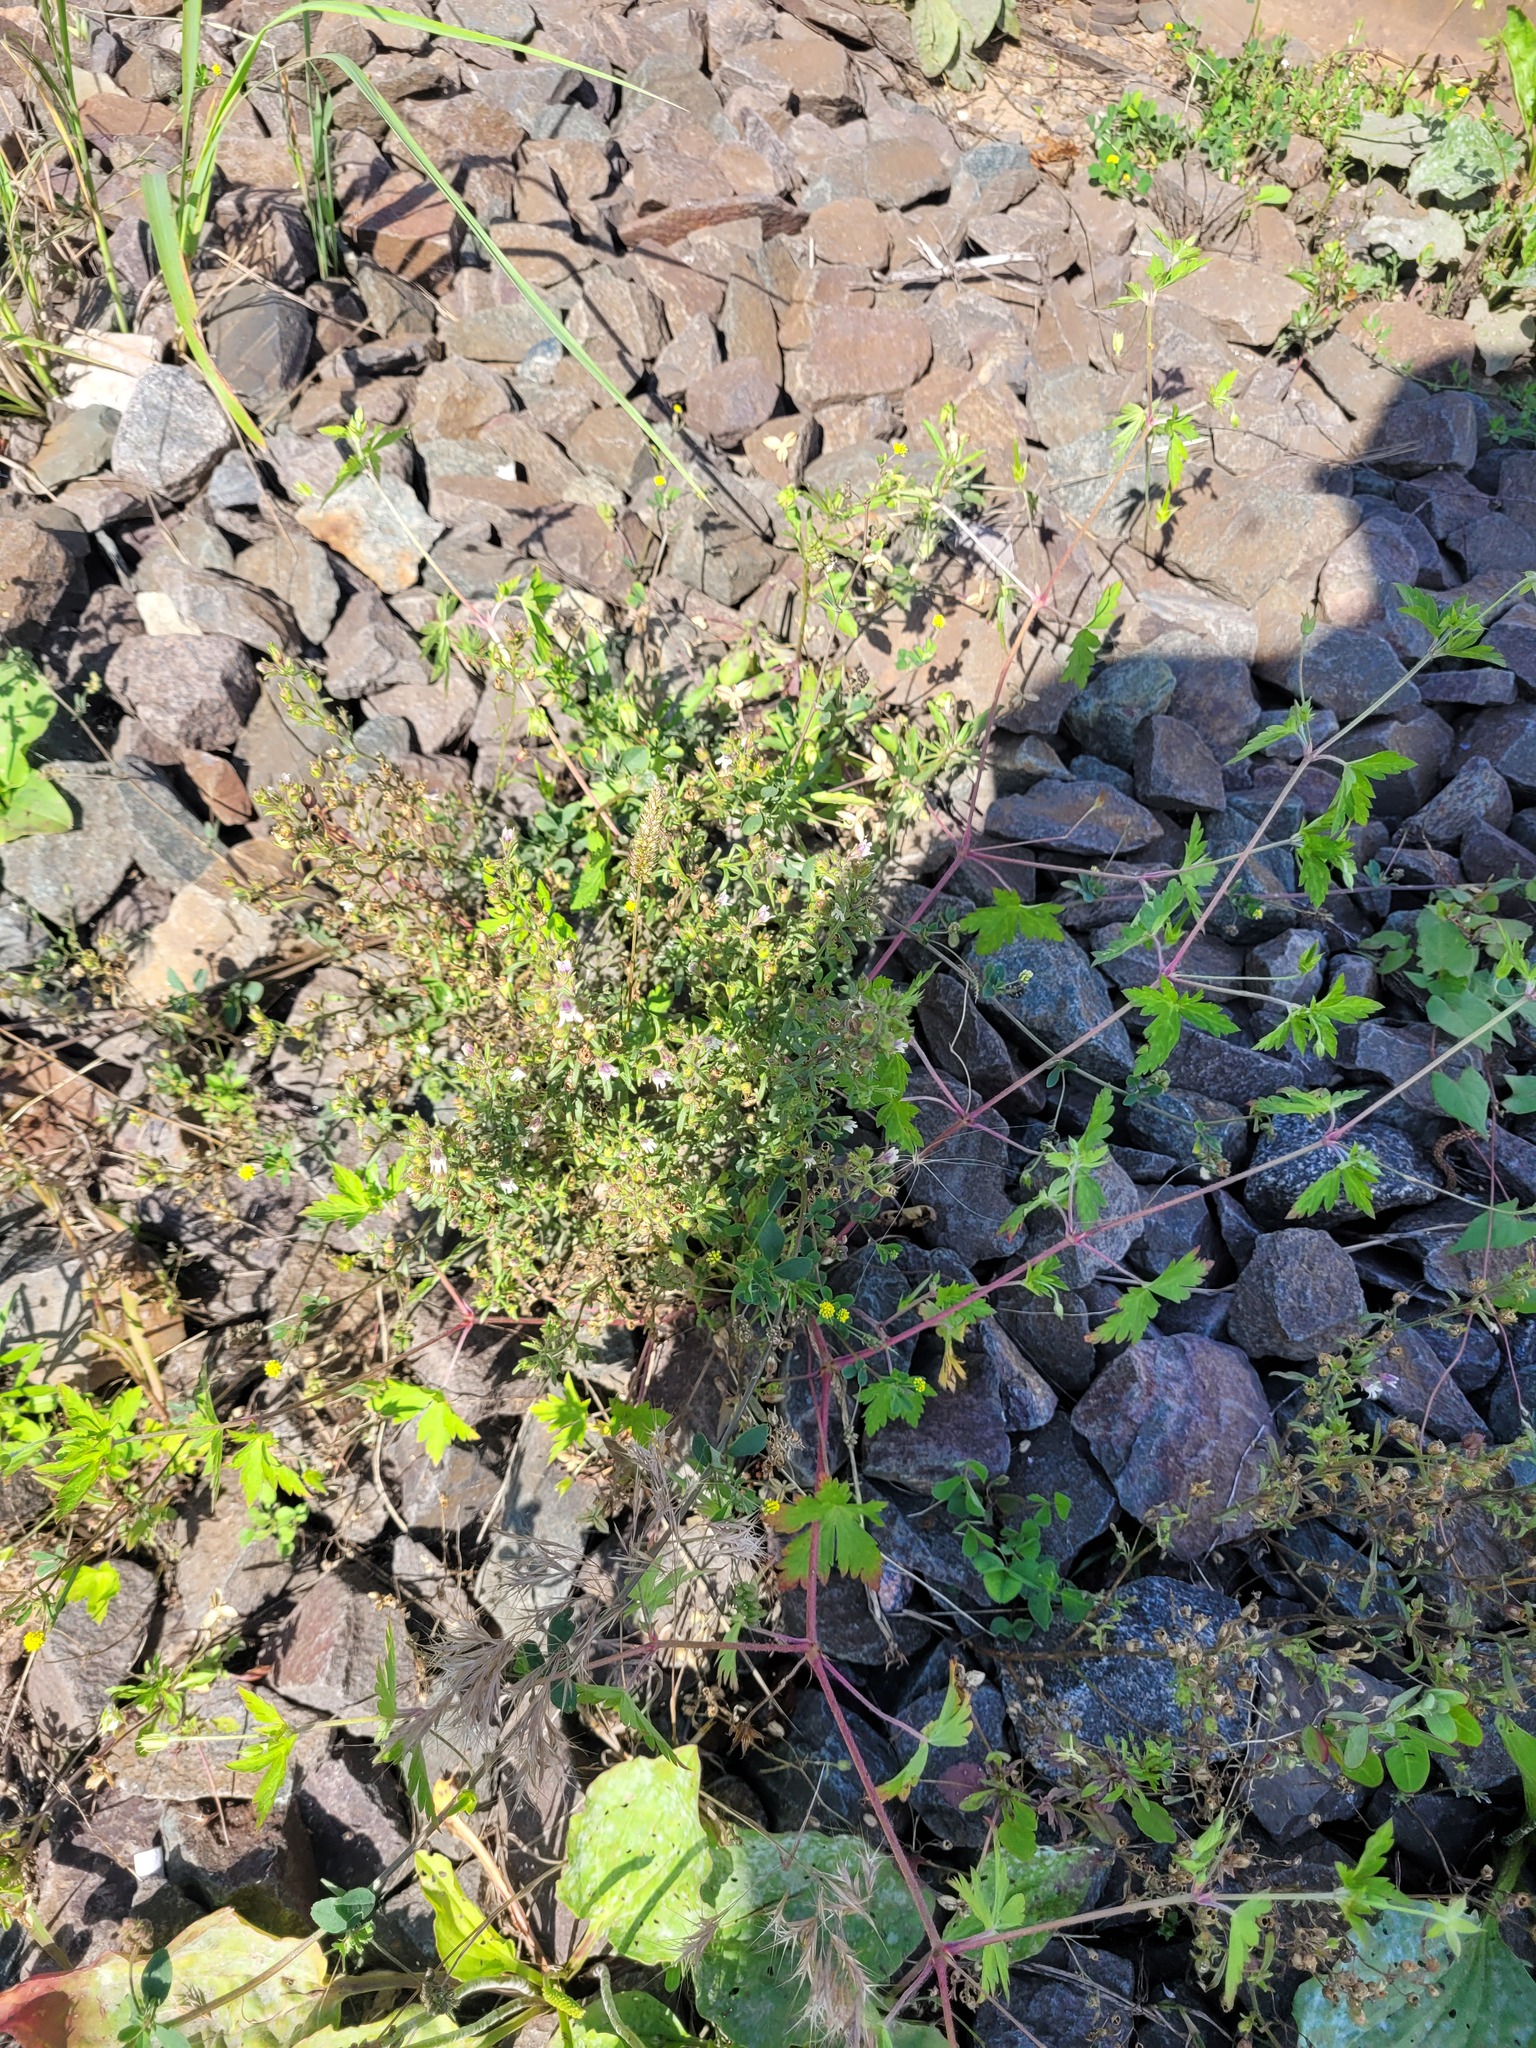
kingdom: Plantae
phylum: Tracheophyta
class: Magnoliopsida
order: Lamiales
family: Plantaginaceae
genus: Chaenorhinum
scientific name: Chaenorhinum minus
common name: Dwarf snapdragon
